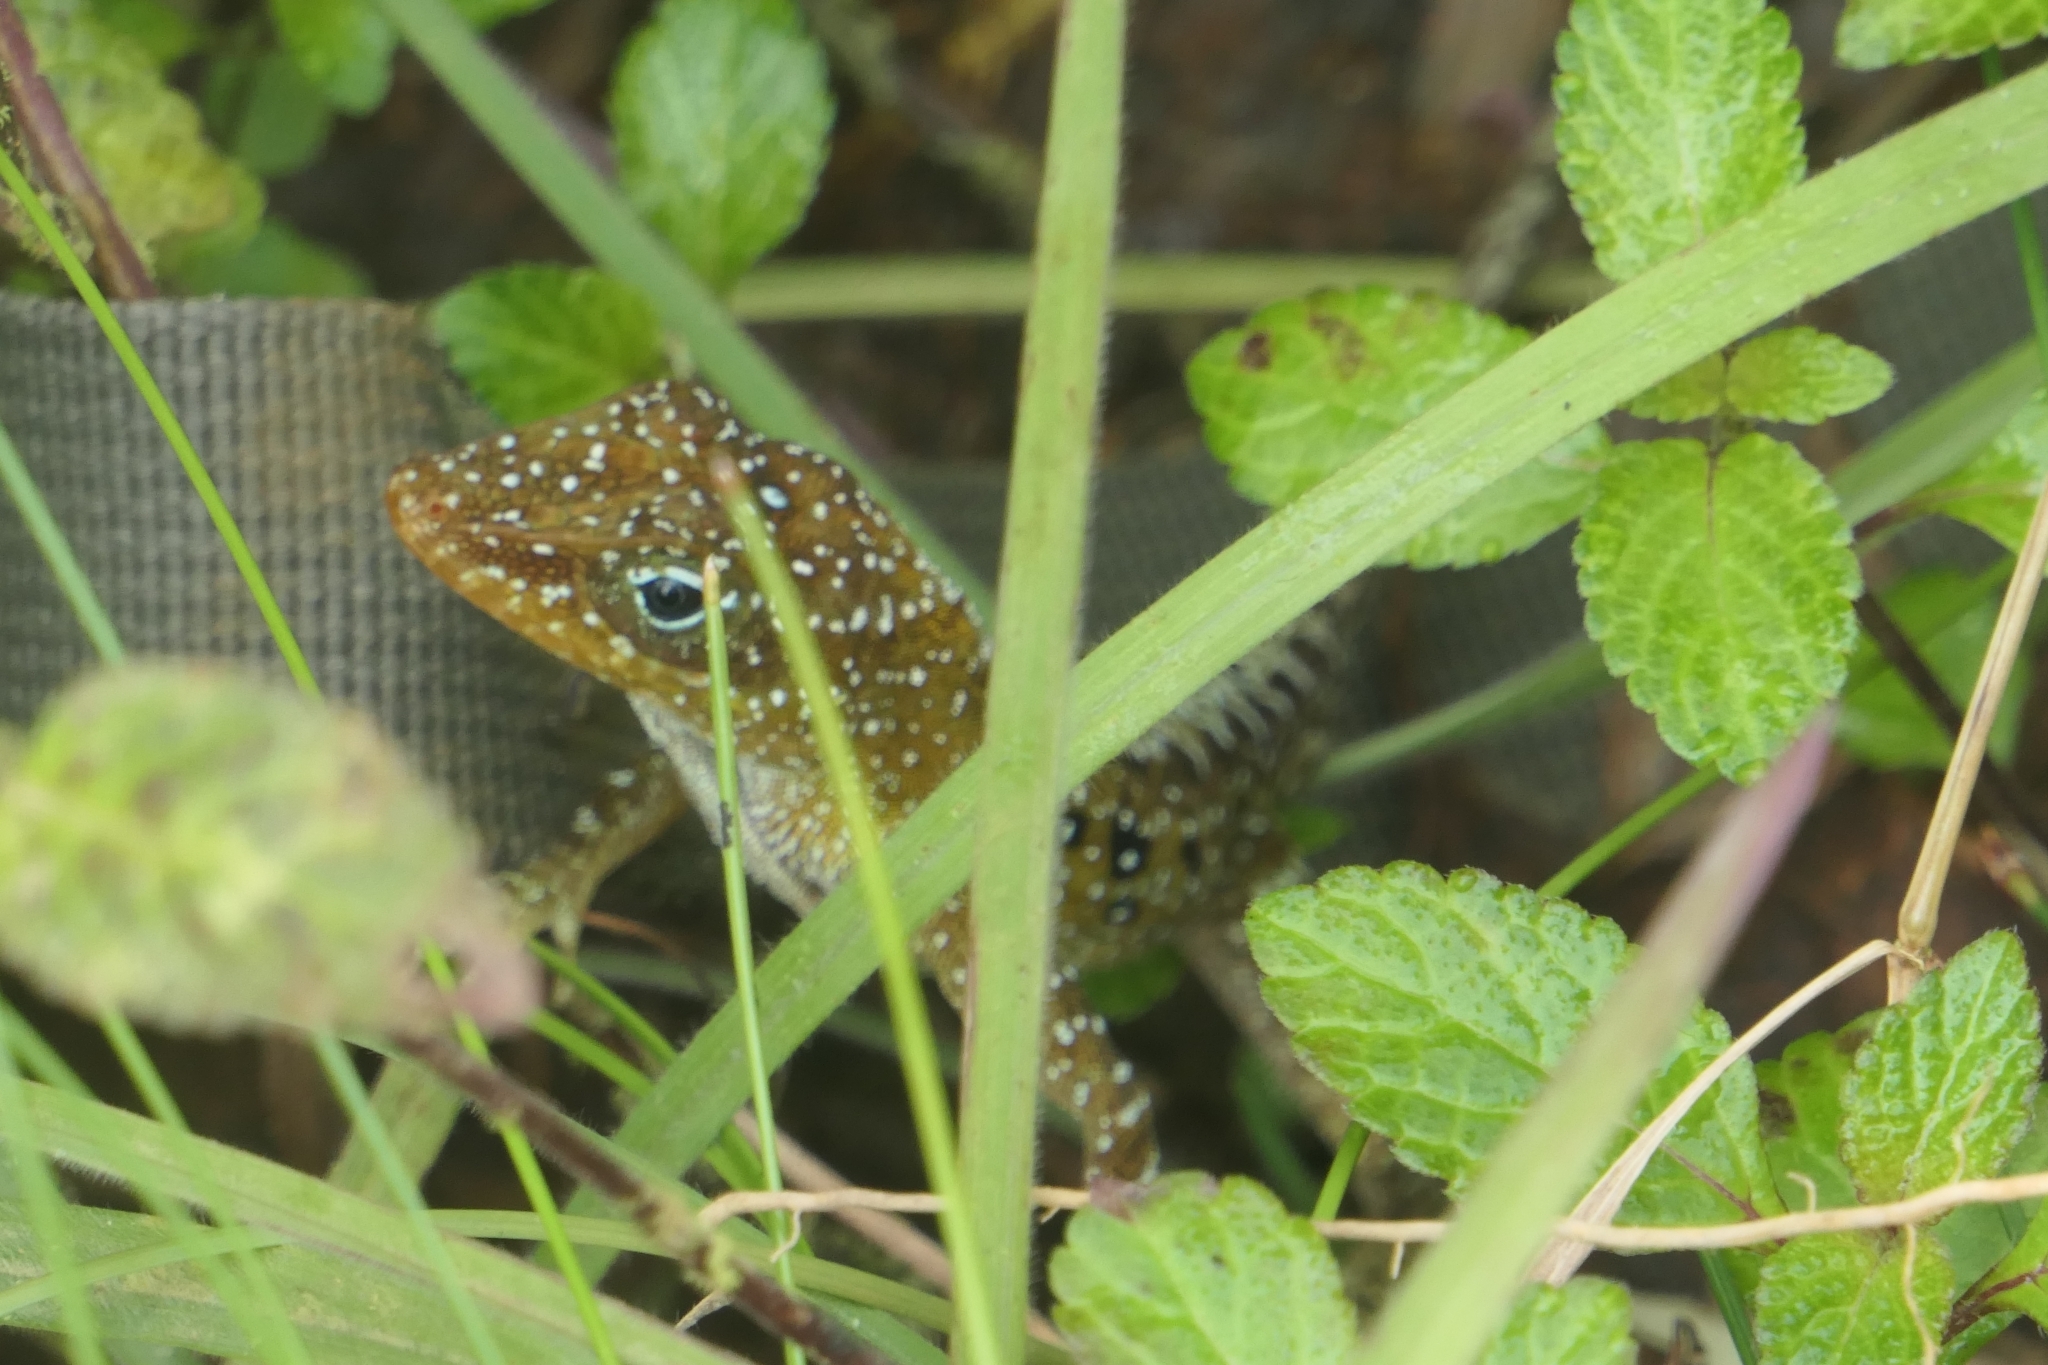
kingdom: Animalia
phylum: Chordata
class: Squamata
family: Dactyloidae
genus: Anolis
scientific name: Anolis oculatus
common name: Dominica anole
